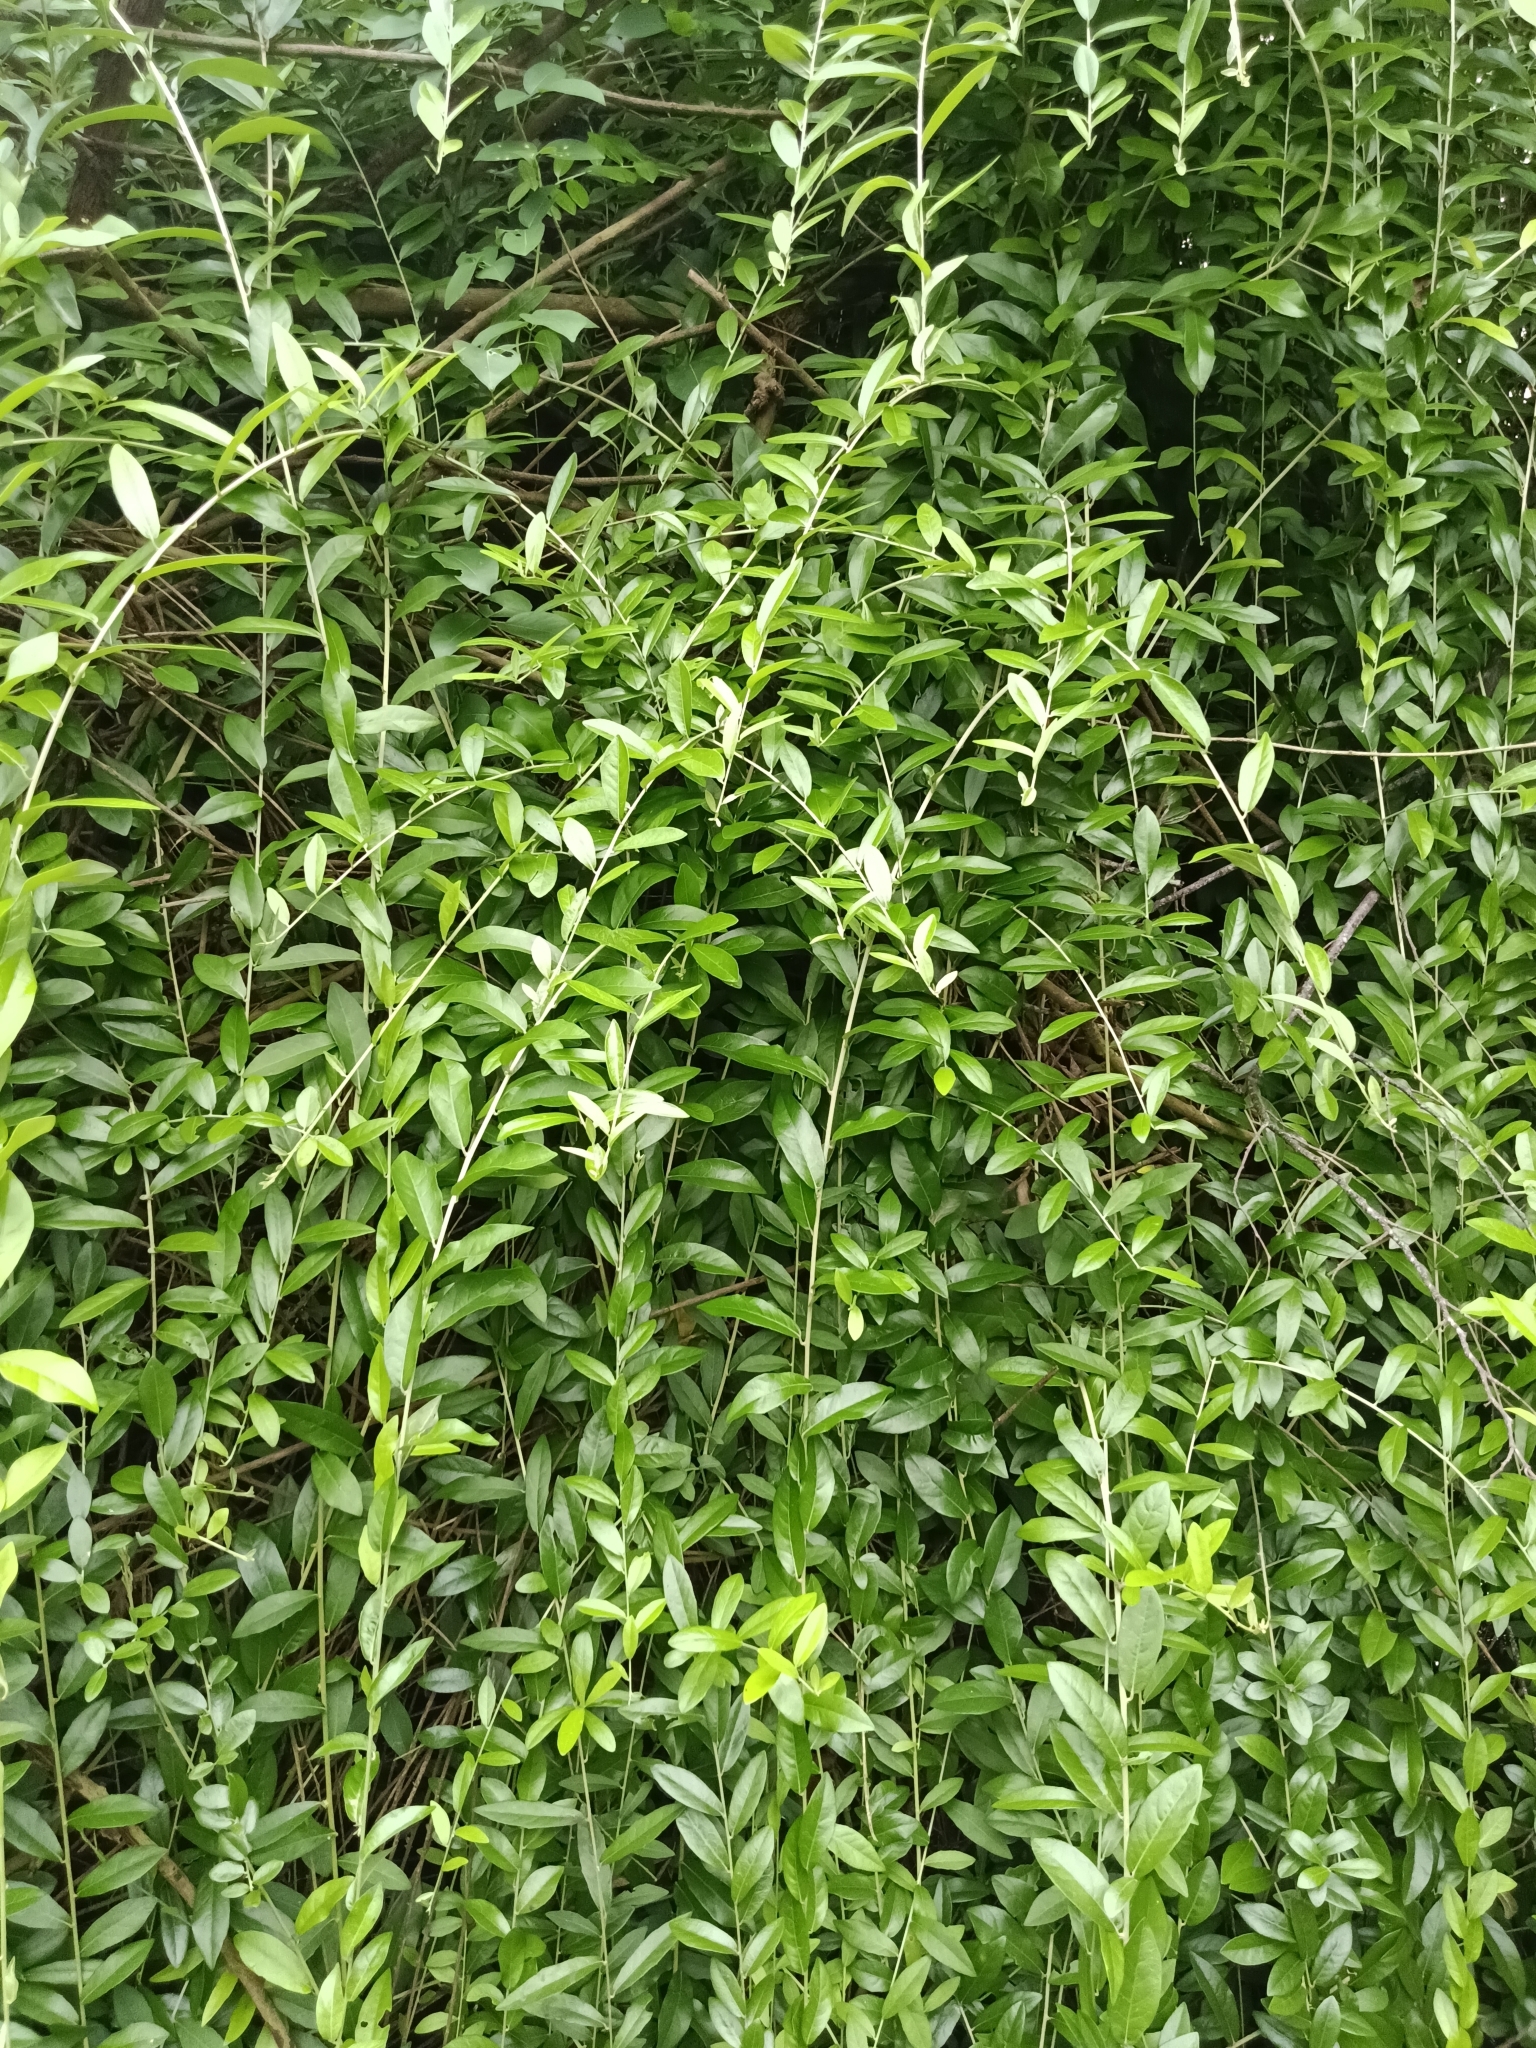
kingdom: Plantae
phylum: Tracheophyta
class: Magnoliopsida
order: Asterales
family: Asteraceae
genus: Tarlmounia
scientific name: Tarlmounia elliptica
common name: Kheua sa lot
